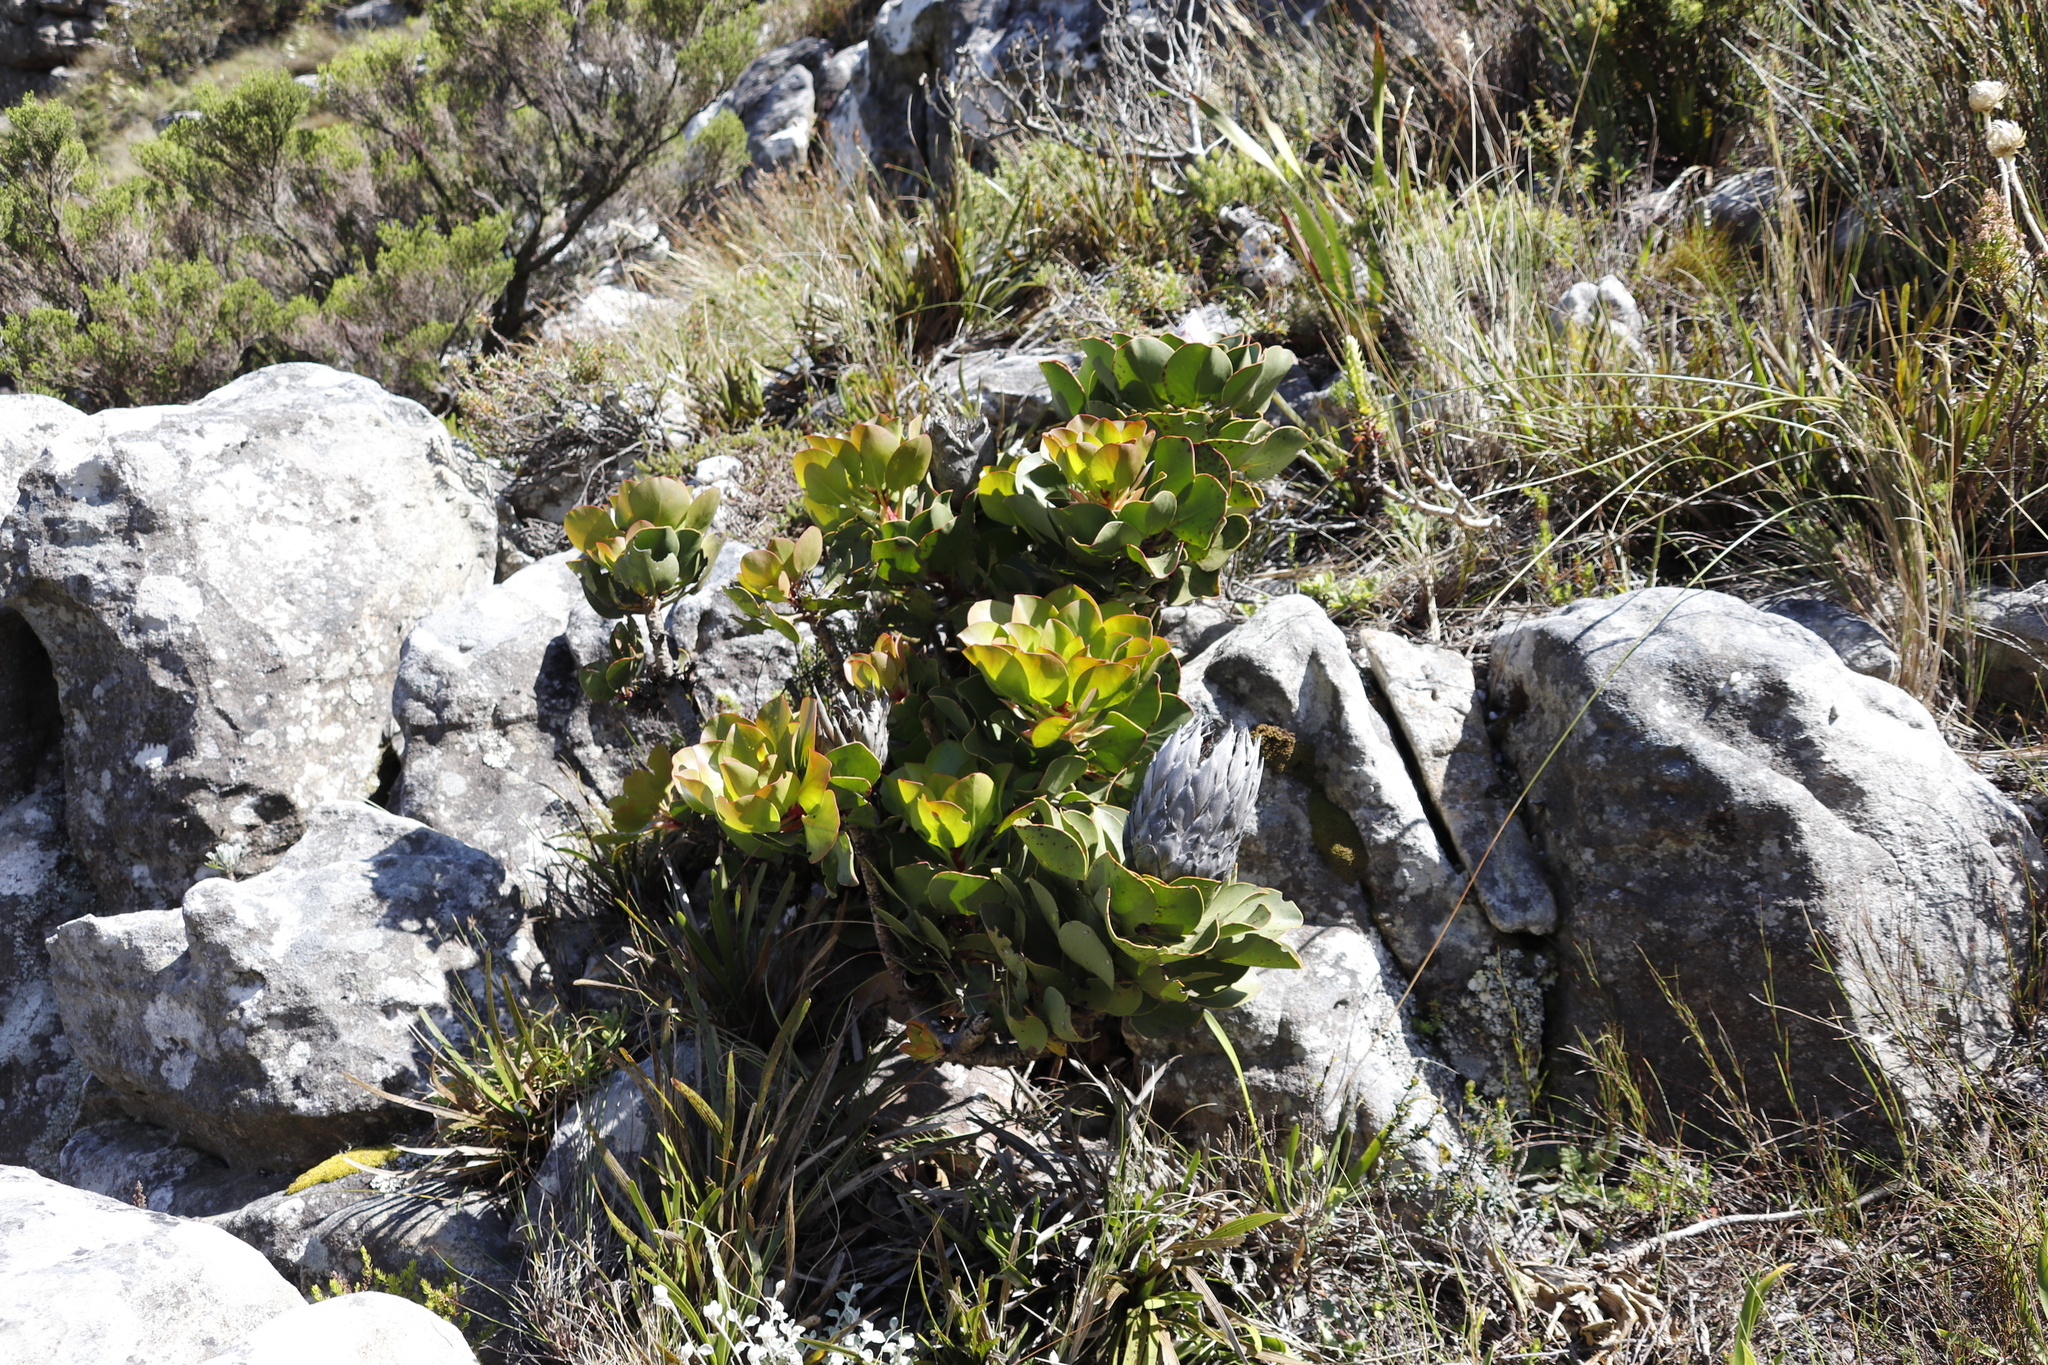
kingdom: Plantae
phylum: Tracheophyta
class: Magnoliopsida
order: Proteales
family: Proteaceae
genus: Protea
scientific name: Protea cynaroides
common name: King protea
